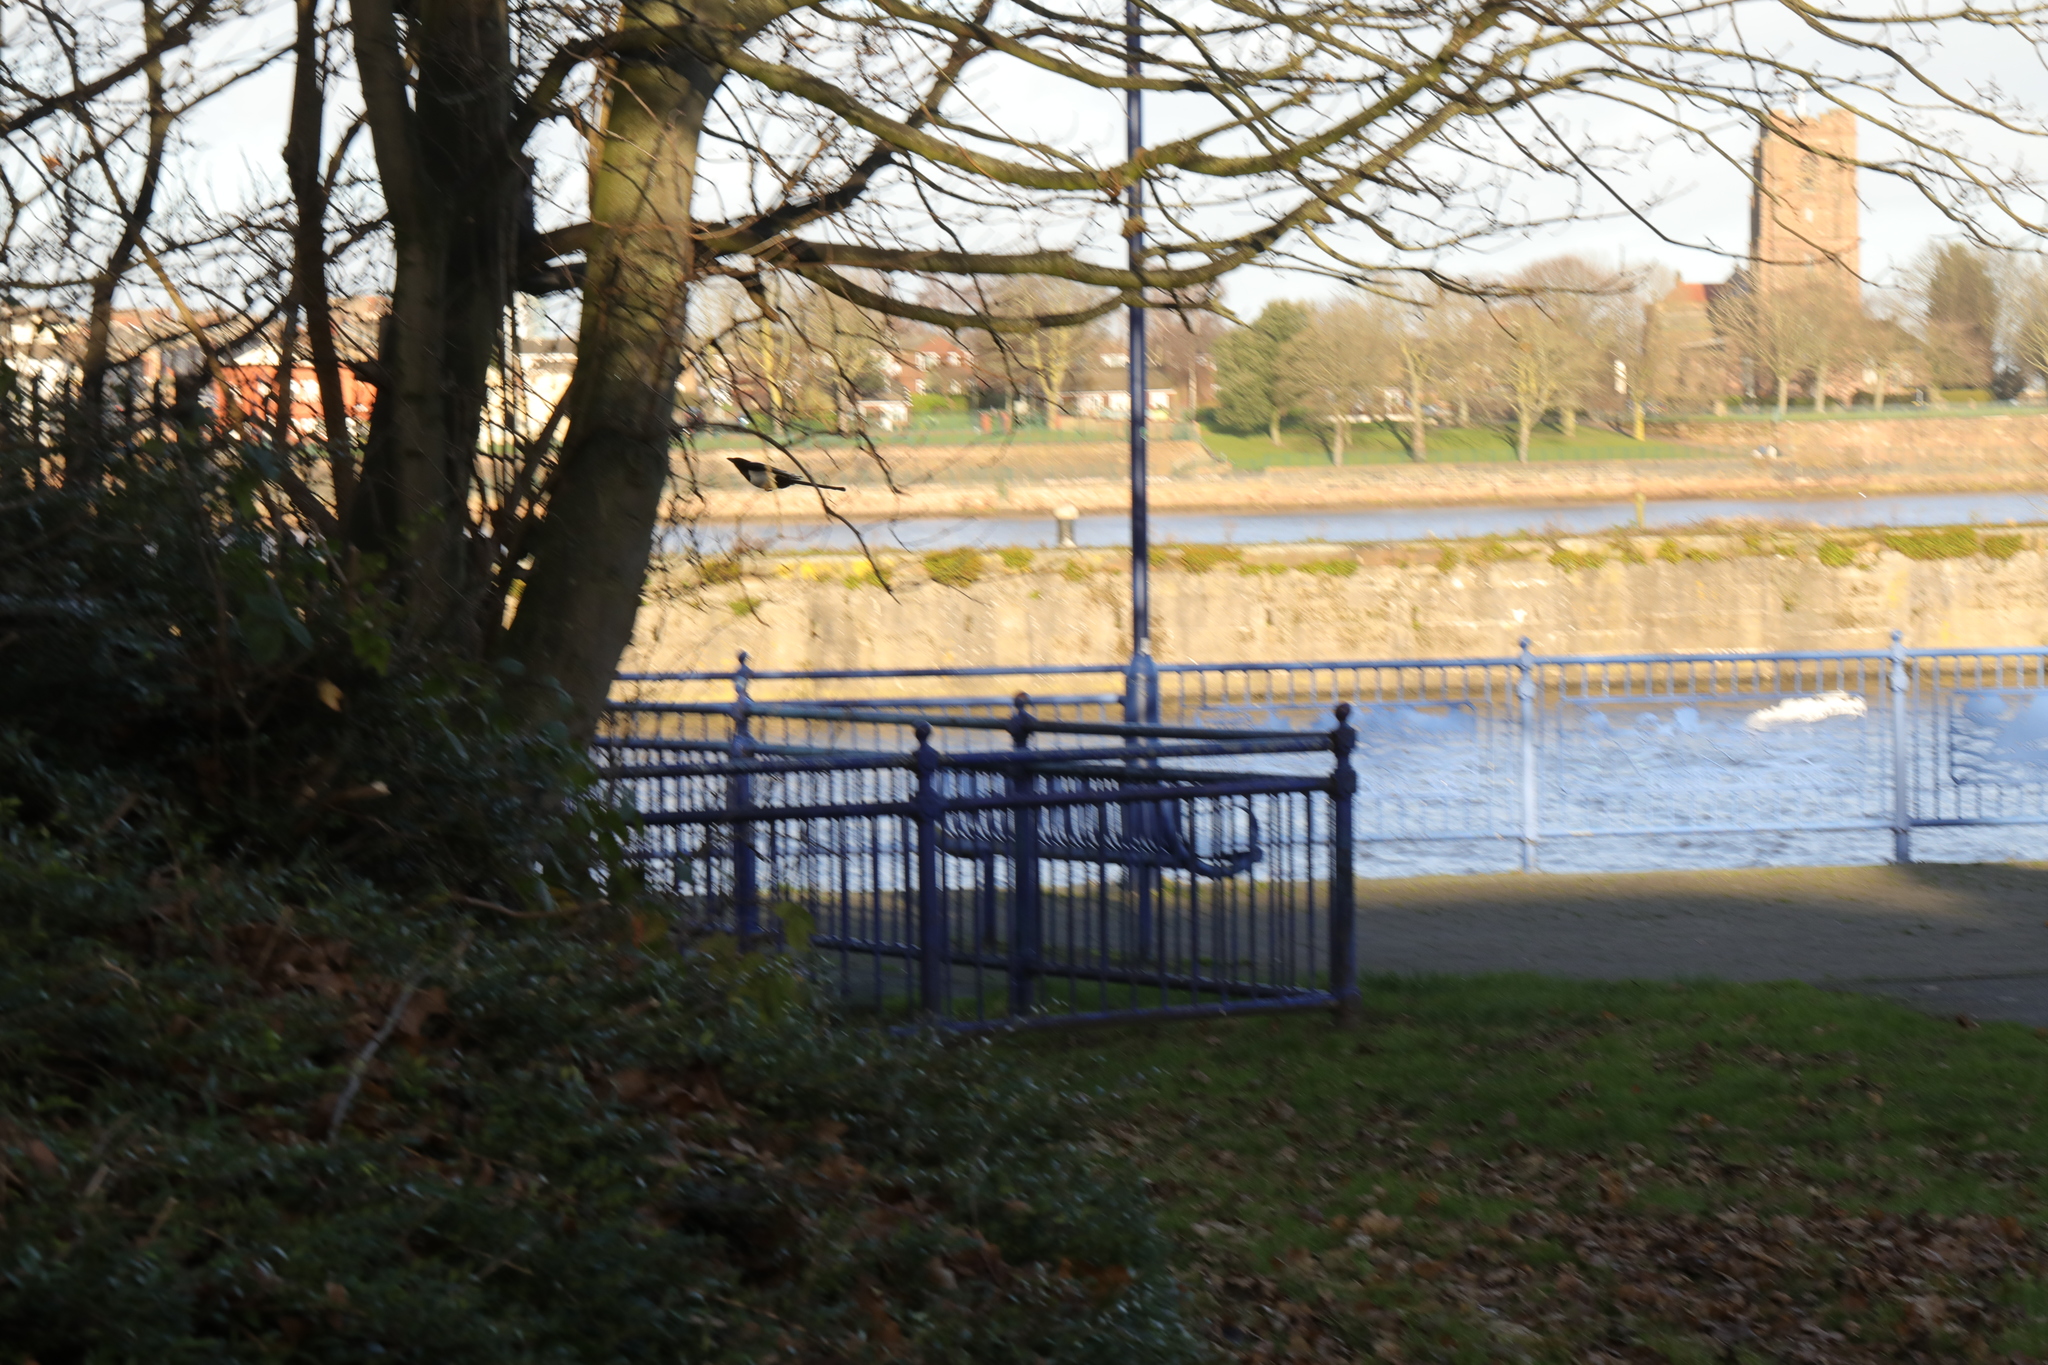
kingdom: Animalia
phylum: Chordata
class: Aves
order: Passeriformes
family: Corvidae
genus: Pica
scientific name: Pica pica
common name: Eurasian magpie
